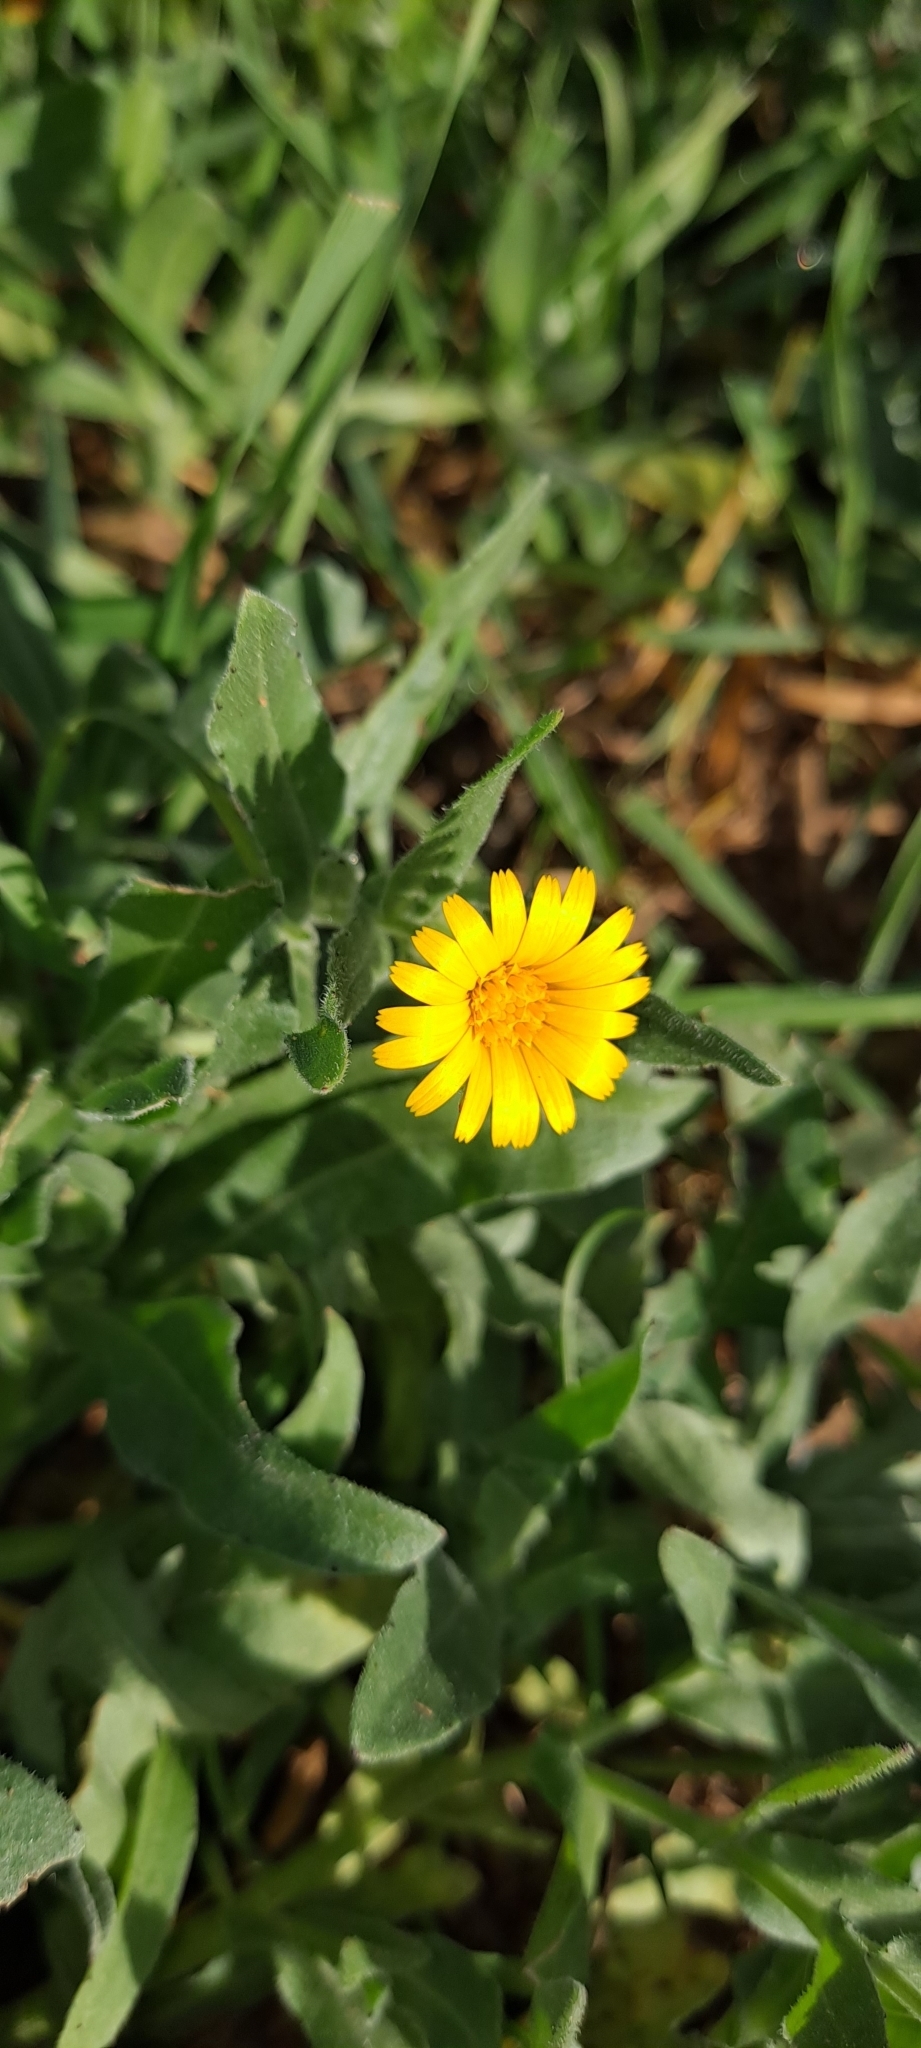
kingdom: Plantae
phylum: Tracheophyta
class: Magnoliopsida
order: Asterales
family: Asteraceae
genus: Calendula
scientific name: Calendula arvensis
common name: Field marigold
